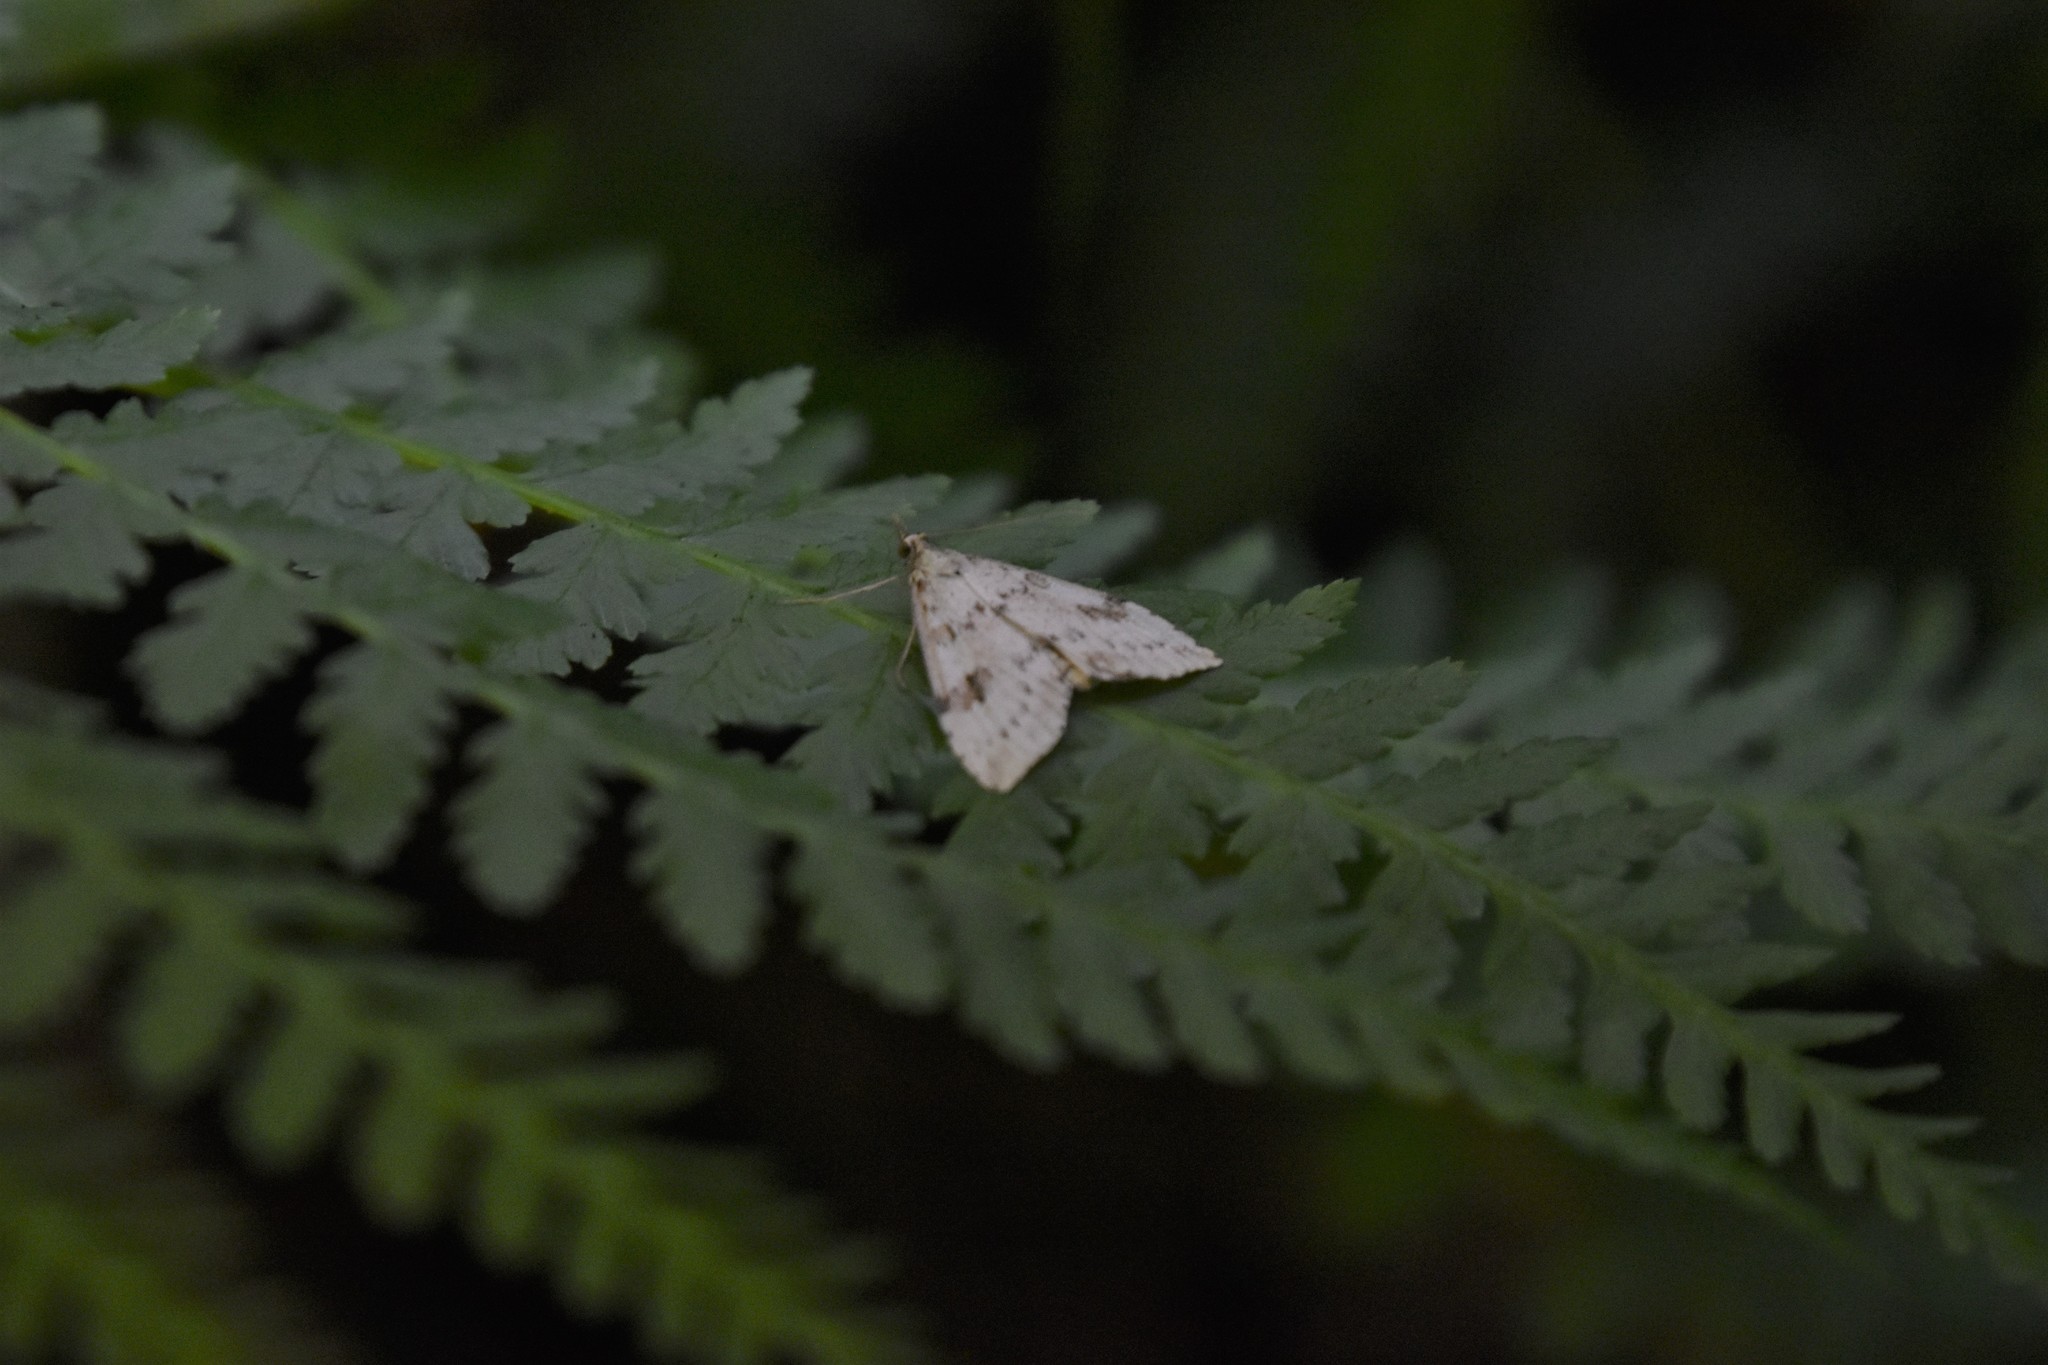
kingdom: Animalia
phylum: Arthropoda
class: Insecta
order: Lepidoptera
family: Crambidae
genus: Udea
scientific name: Udea washingtonalis
